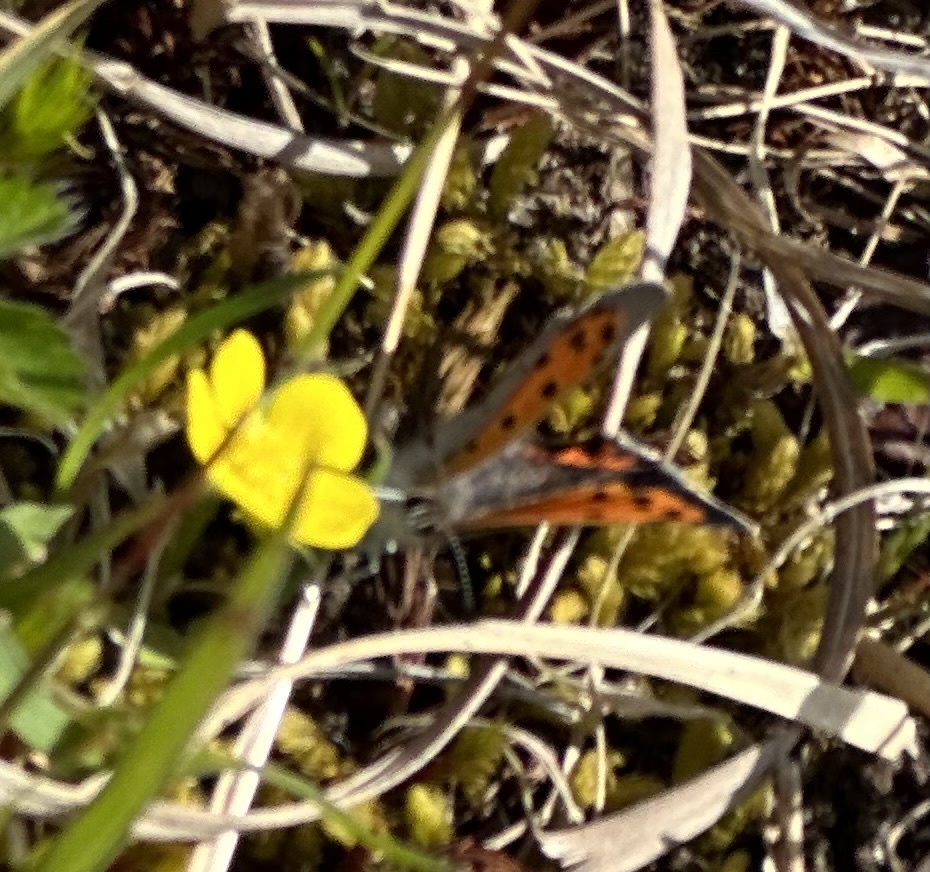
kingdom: Animalia
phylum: Arthropoda
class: Insecta
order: Lepidoptera
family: Lycaenidae
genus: Lycaena
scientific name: Lycaena hypophlaeas
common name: American copper
